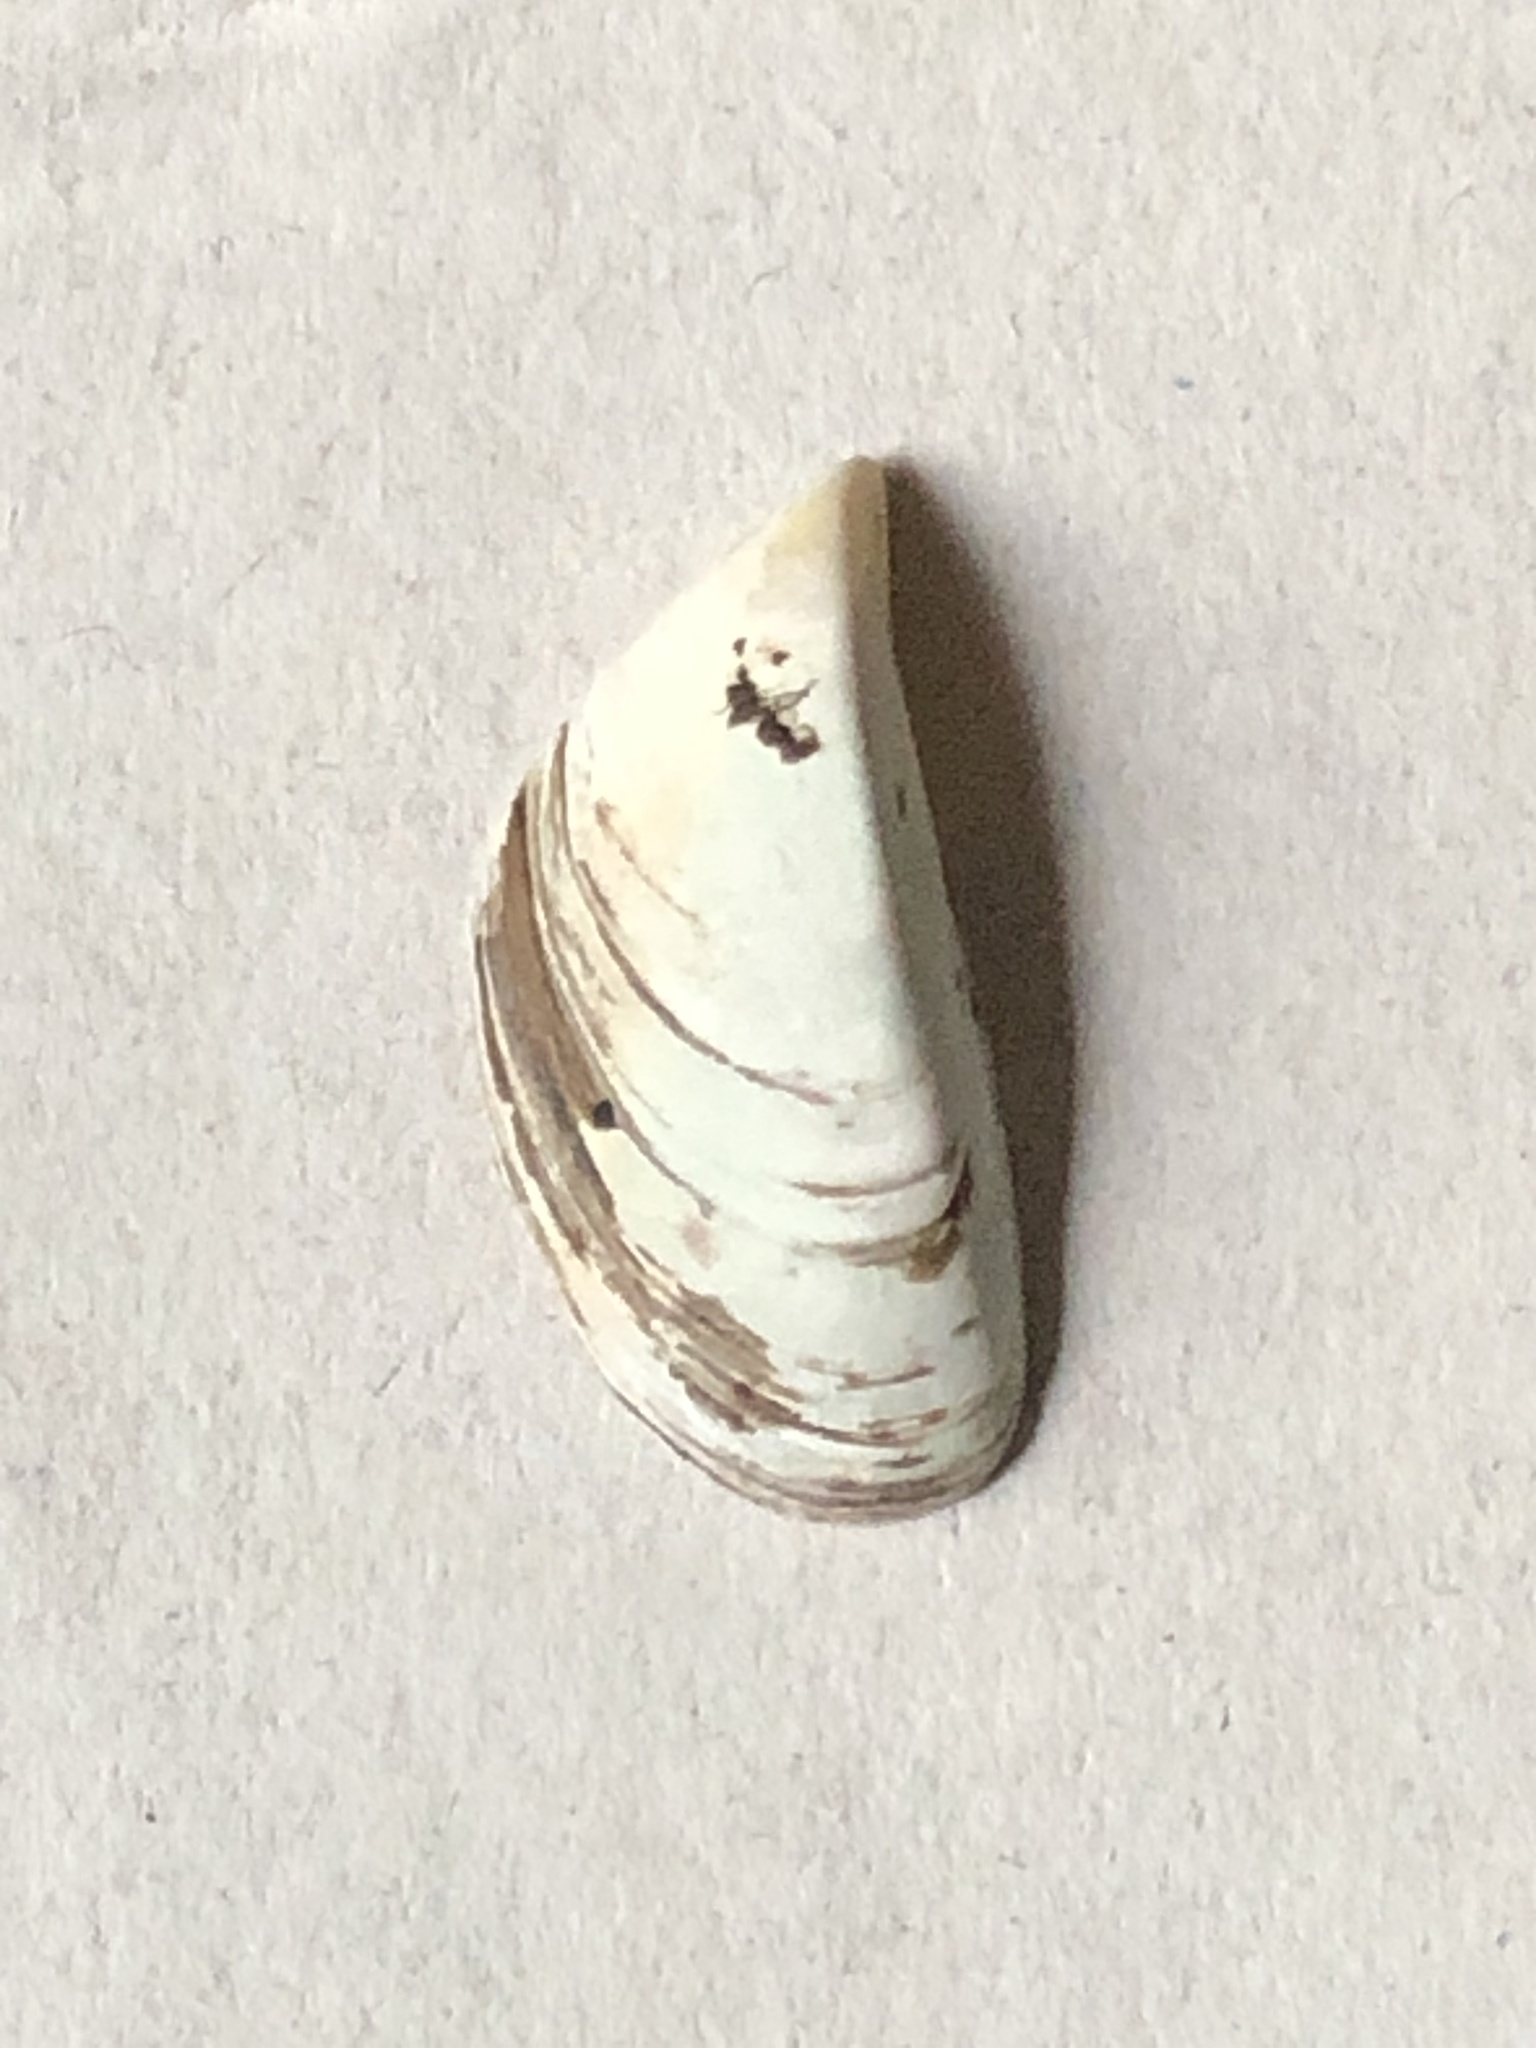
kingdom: Animalia
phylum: Mollusca
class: Bivalvia
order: Myida
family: Dreissenidae
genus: Dreissena
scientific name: Dreissena polymorpha
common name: Zebra mussel
